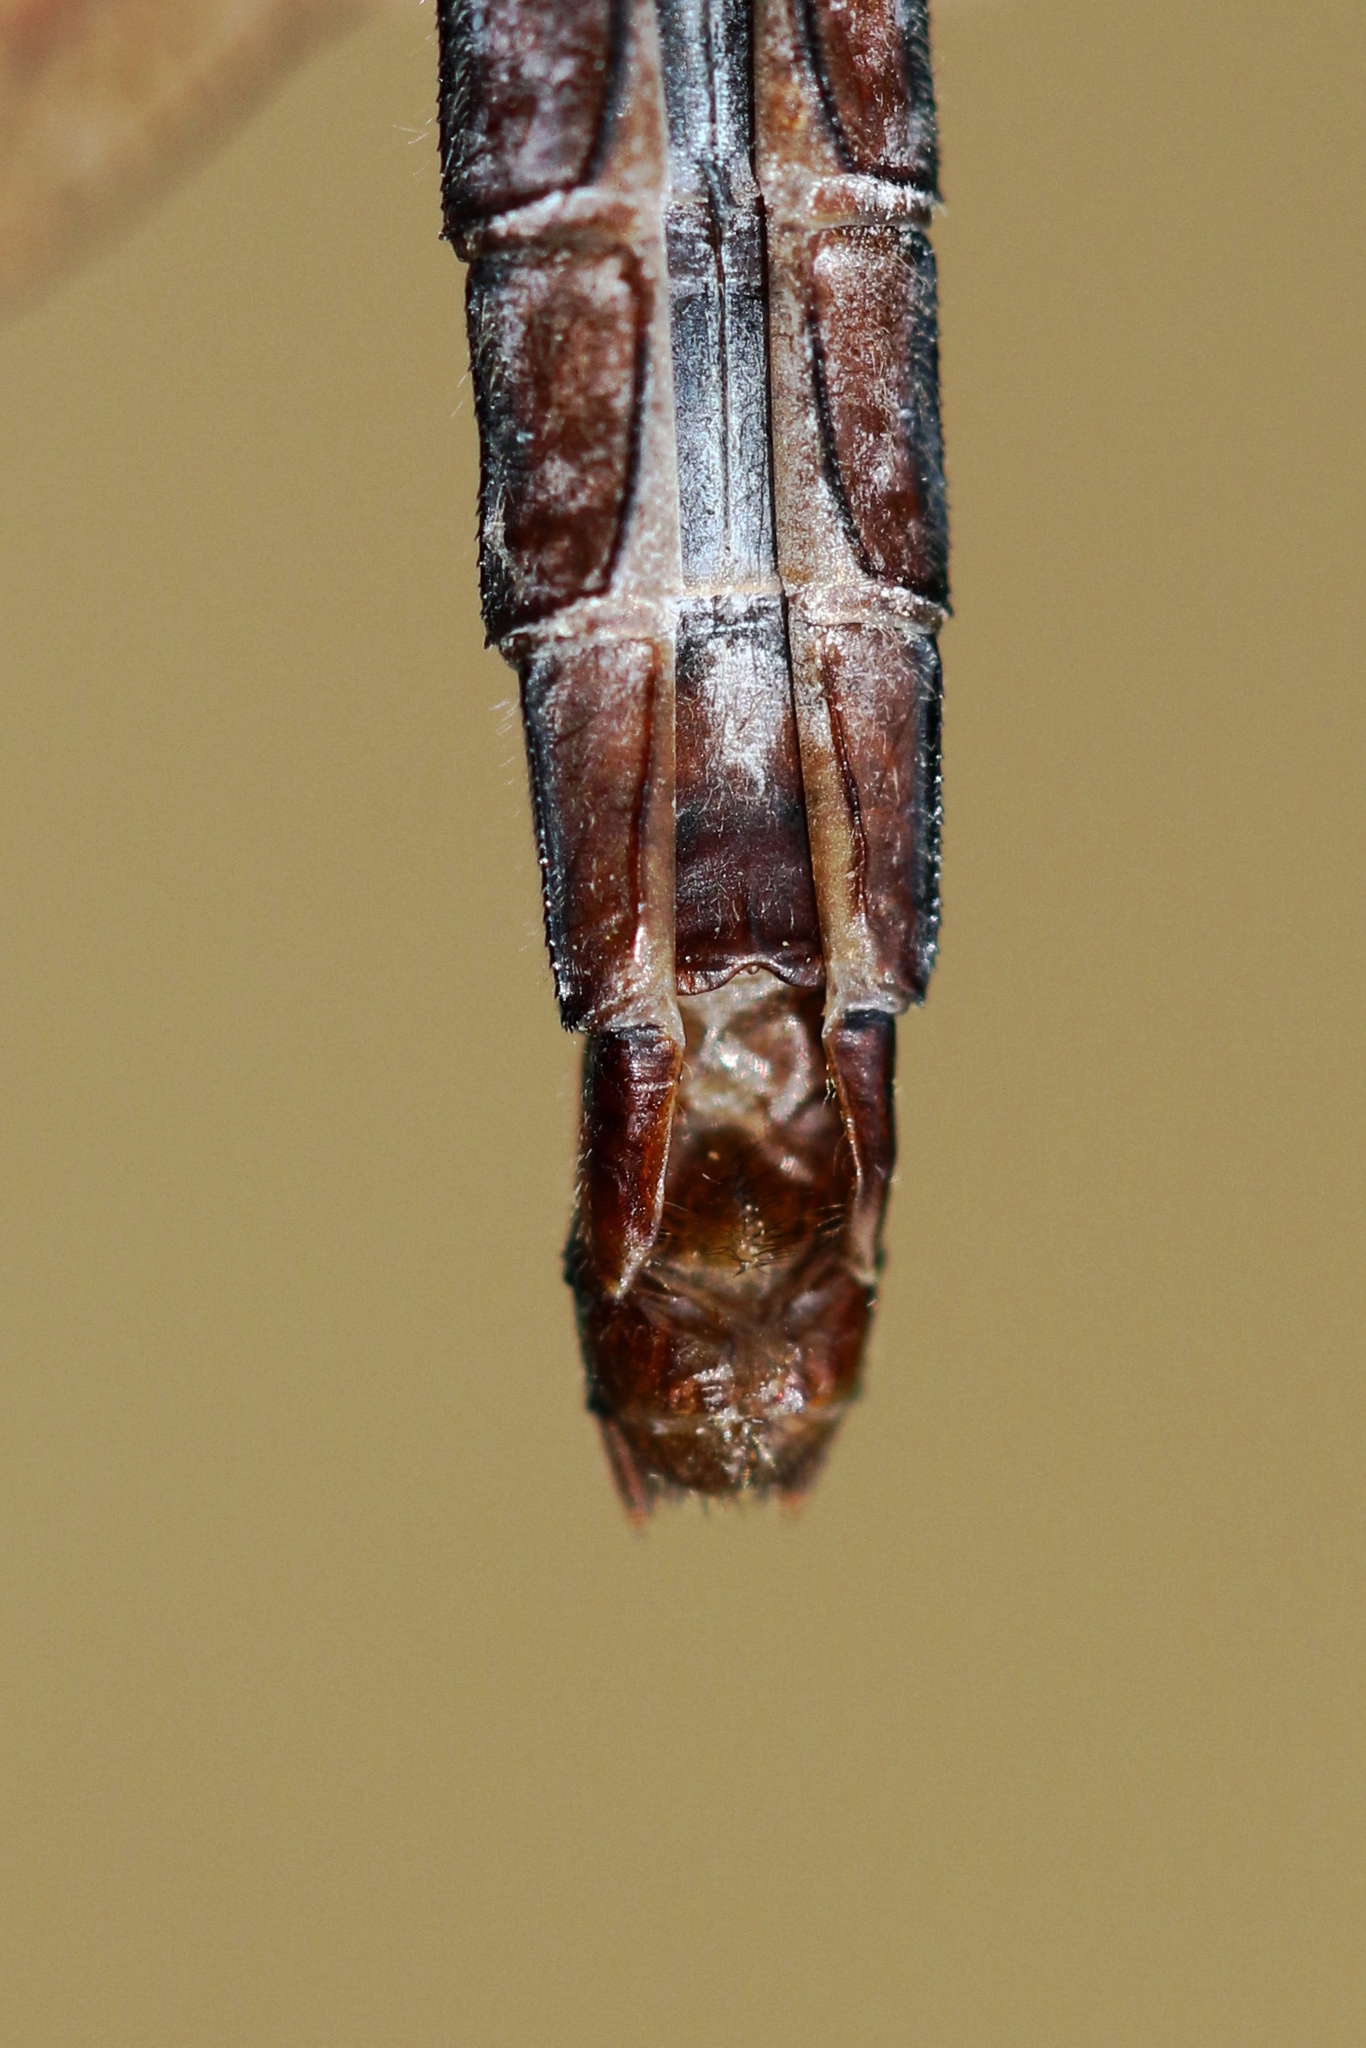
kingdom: Animalia
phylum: Arthropoda
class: Insecta
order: Odonata
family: Libellulidae
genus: Ladona
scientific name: Ladona julia
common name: Chalk-fronted corporal
